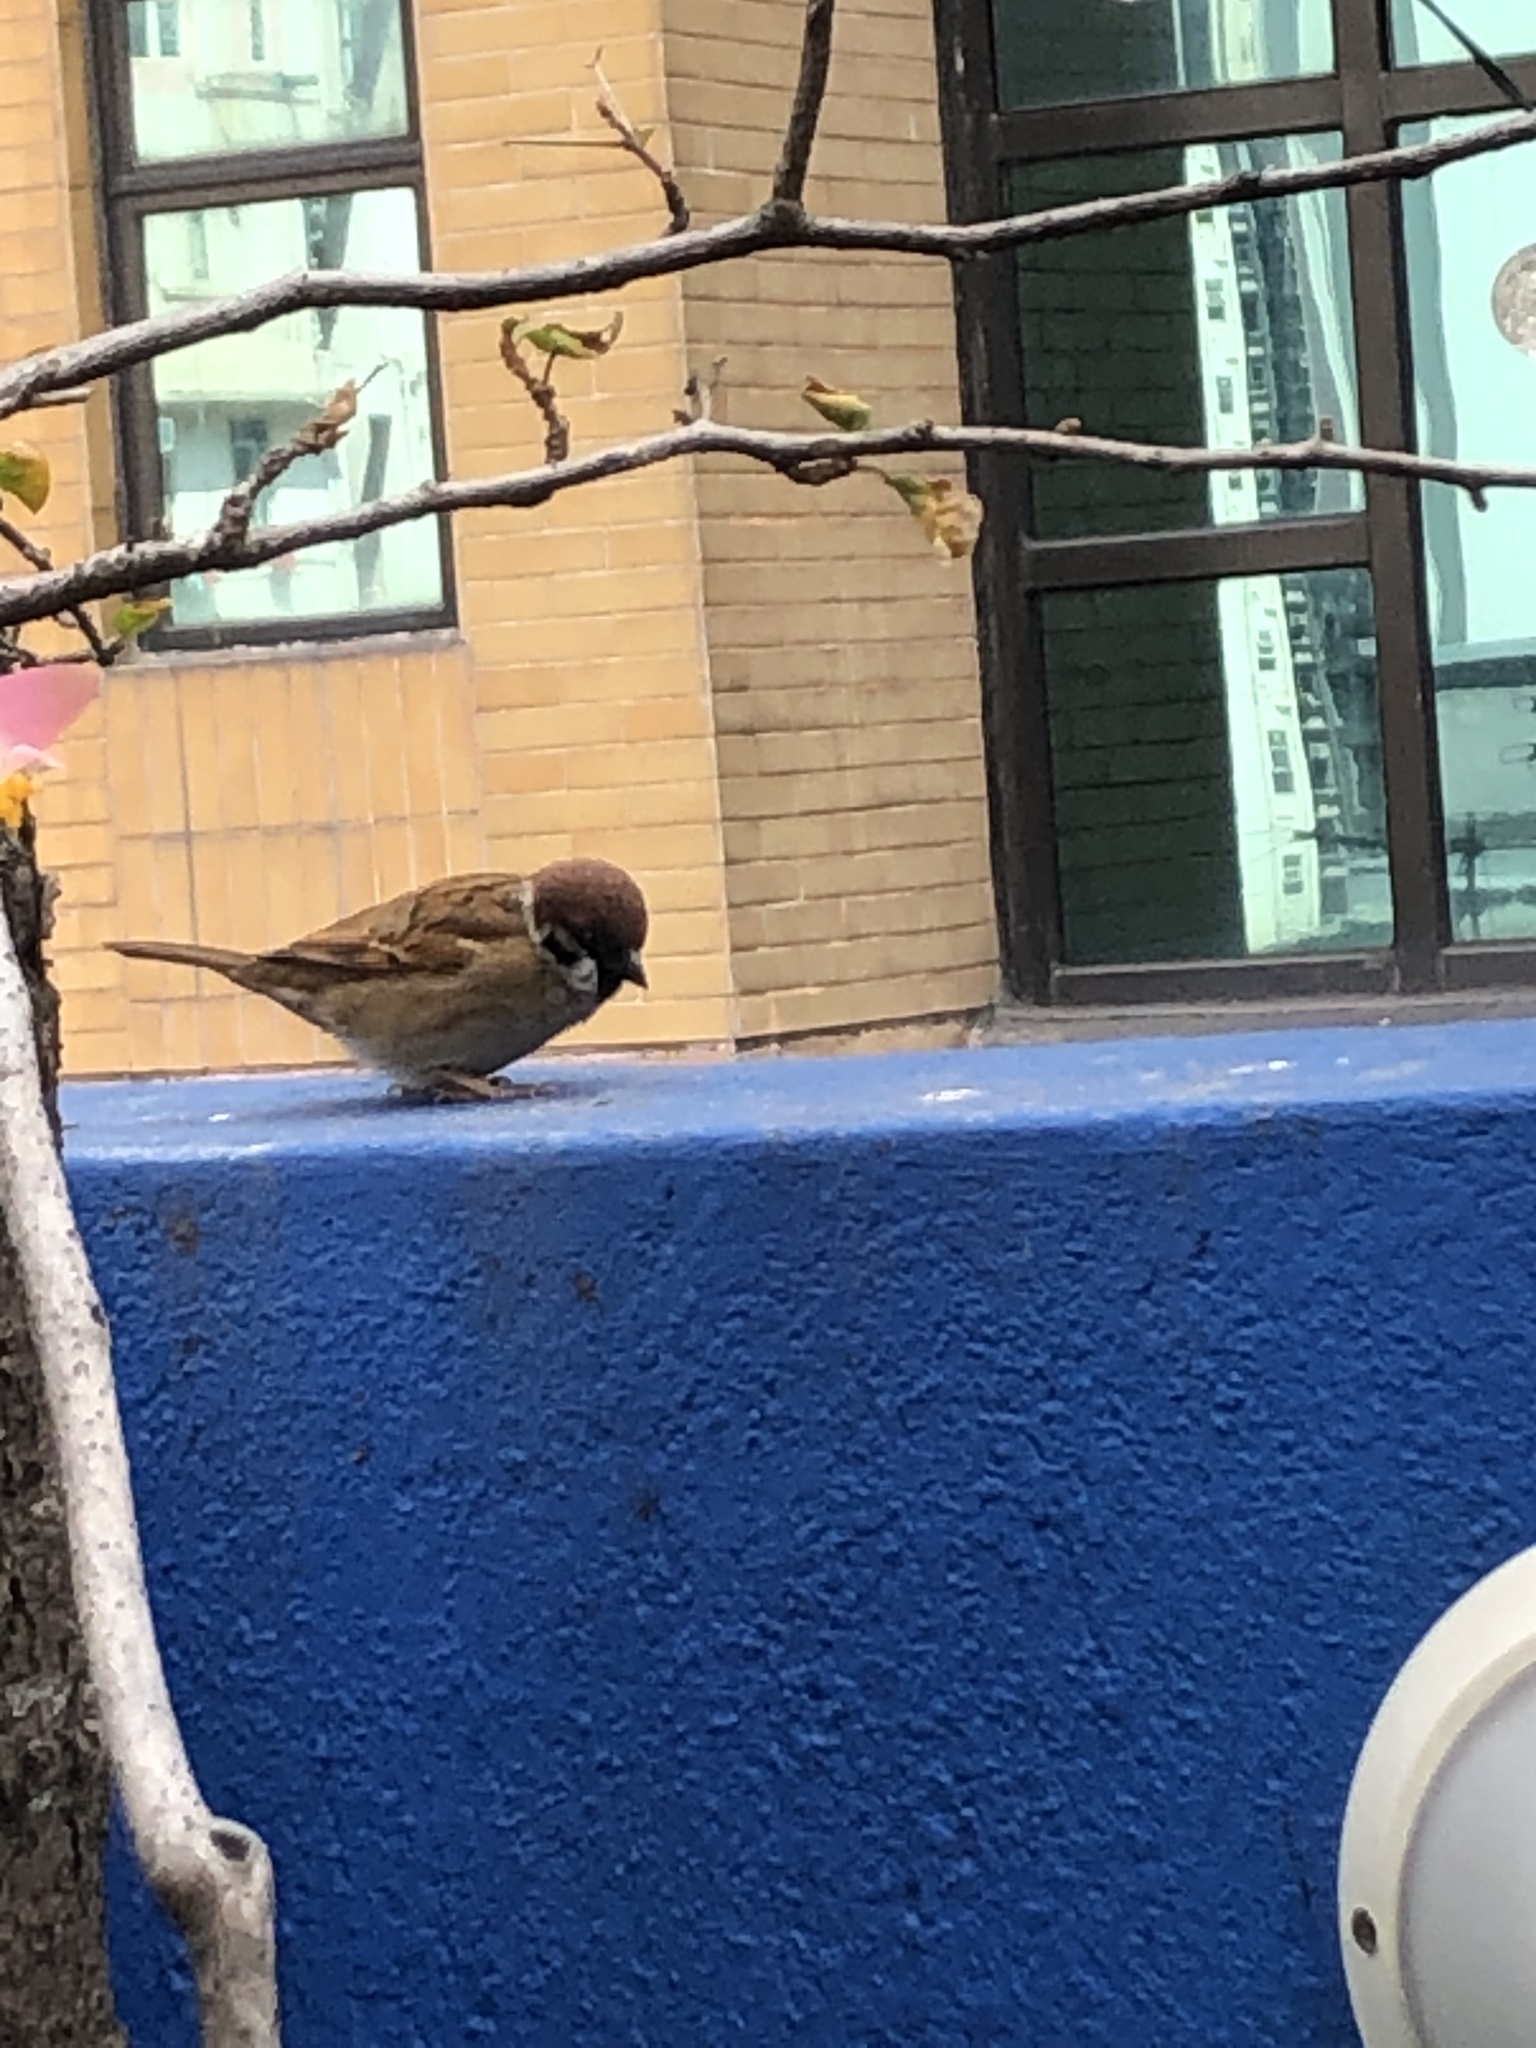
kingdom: Animalia
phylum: Chordata
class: Aves
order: Passeriformes
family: Passeridae
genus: Passer
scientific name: Passer montanus
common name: Eurasian tree sparrow
